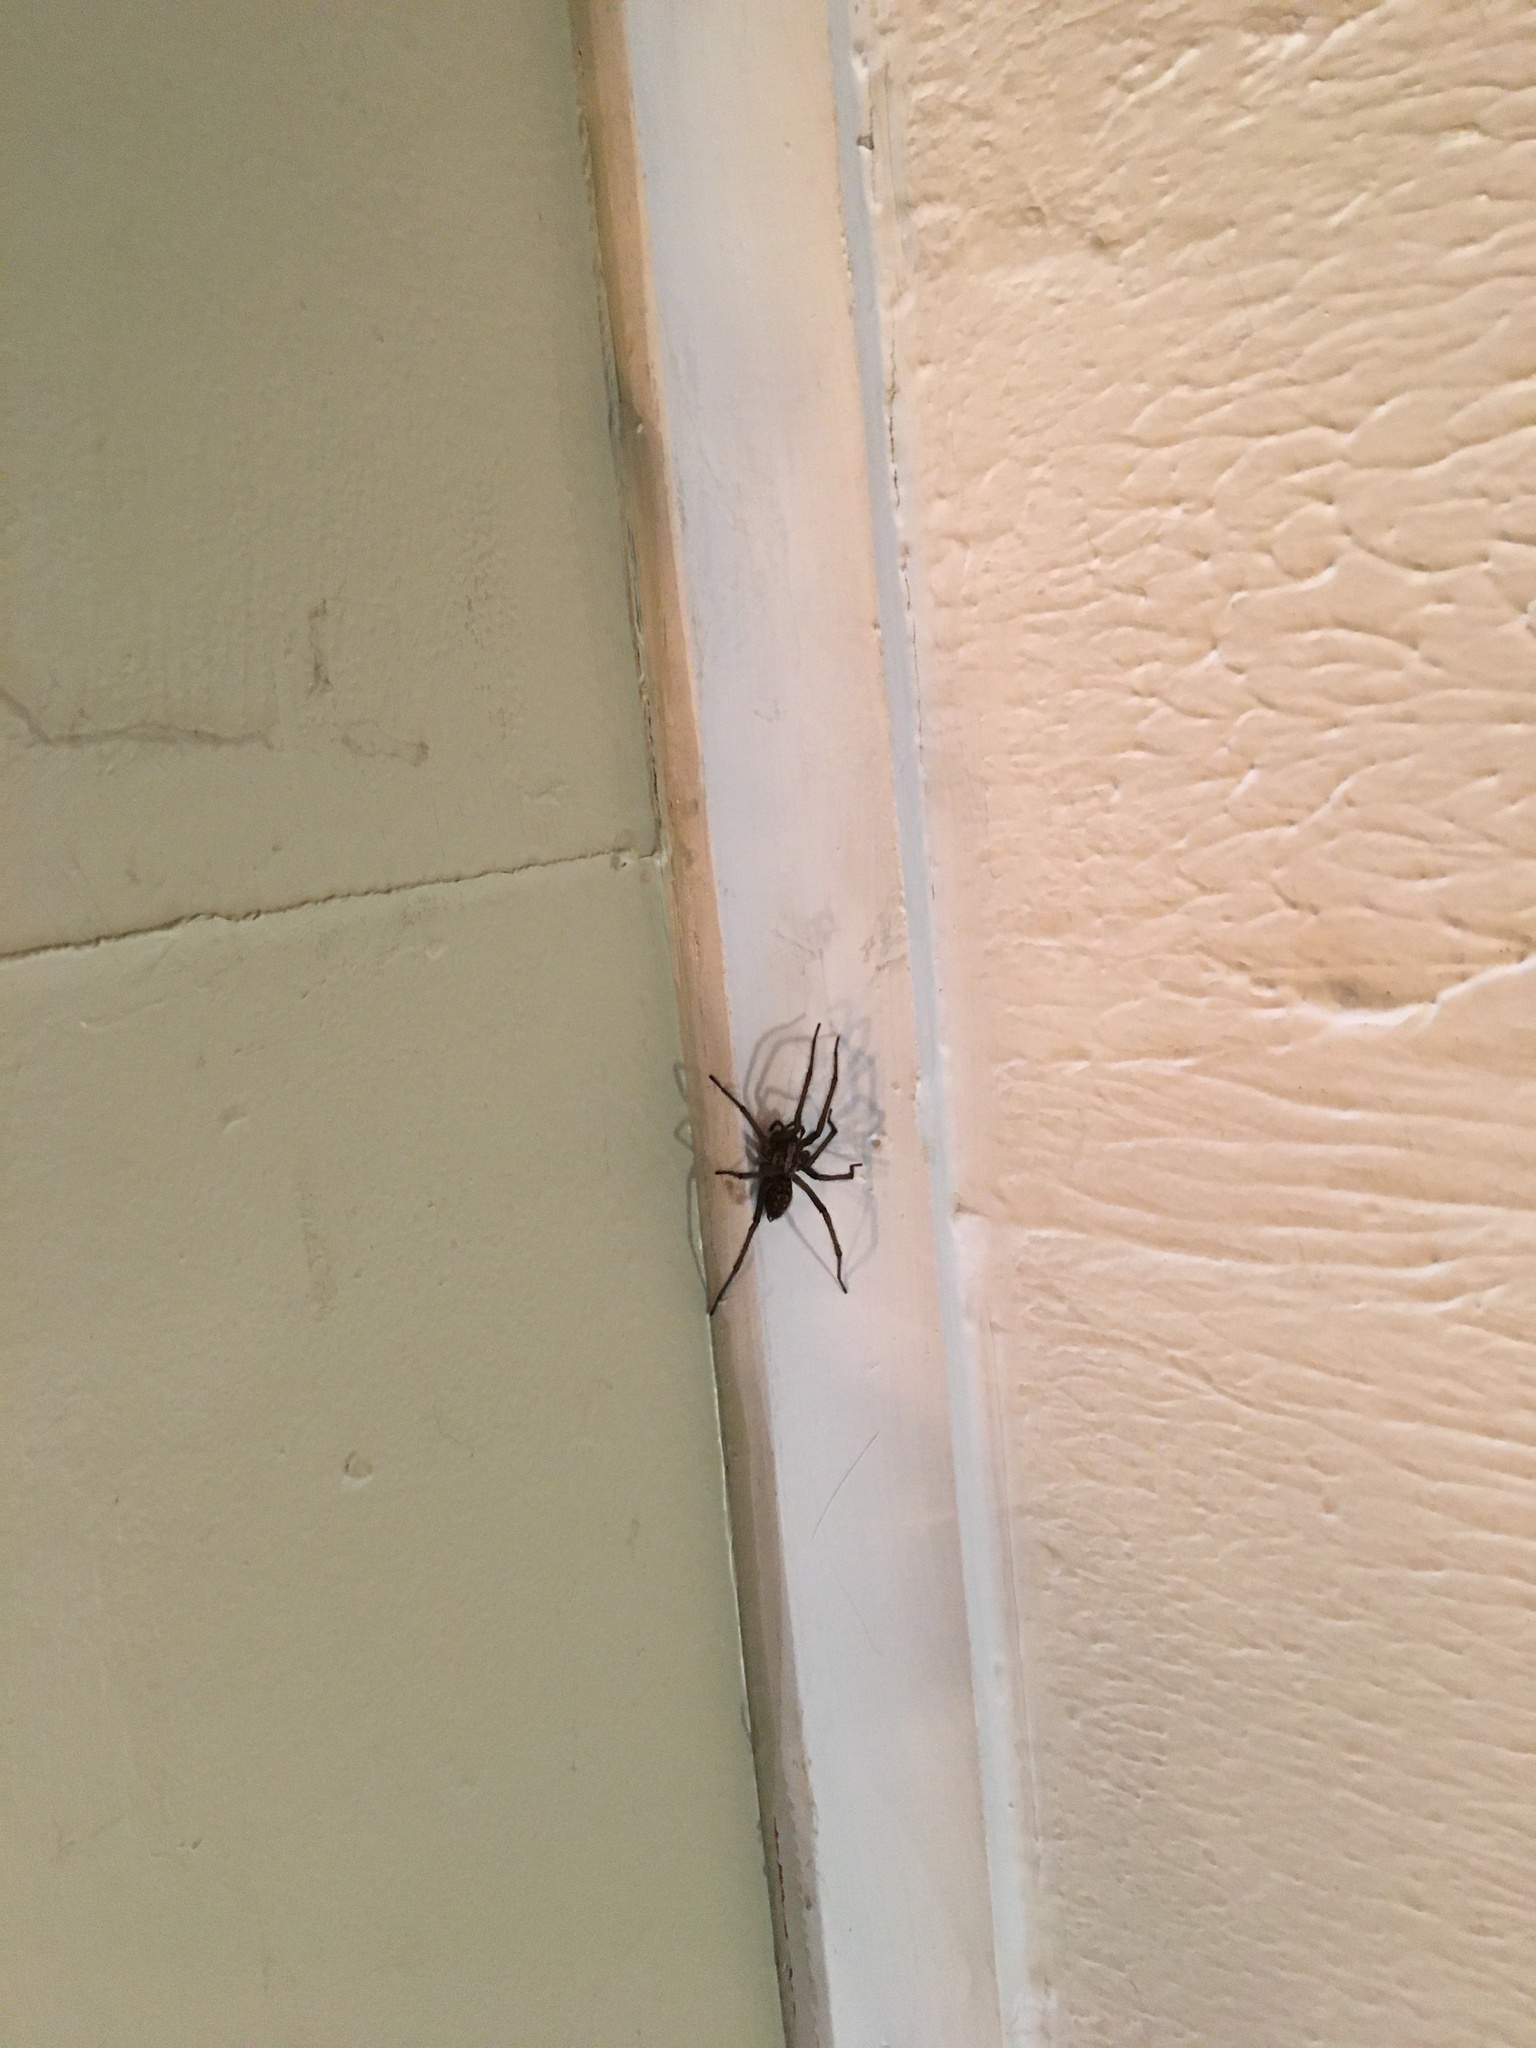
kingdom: Animalia
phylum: Arthropoda
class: Arachnida
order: Araneae
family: Agelenidae
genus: Eratigena
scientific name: Eratigena duellica
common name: Giant house spider
